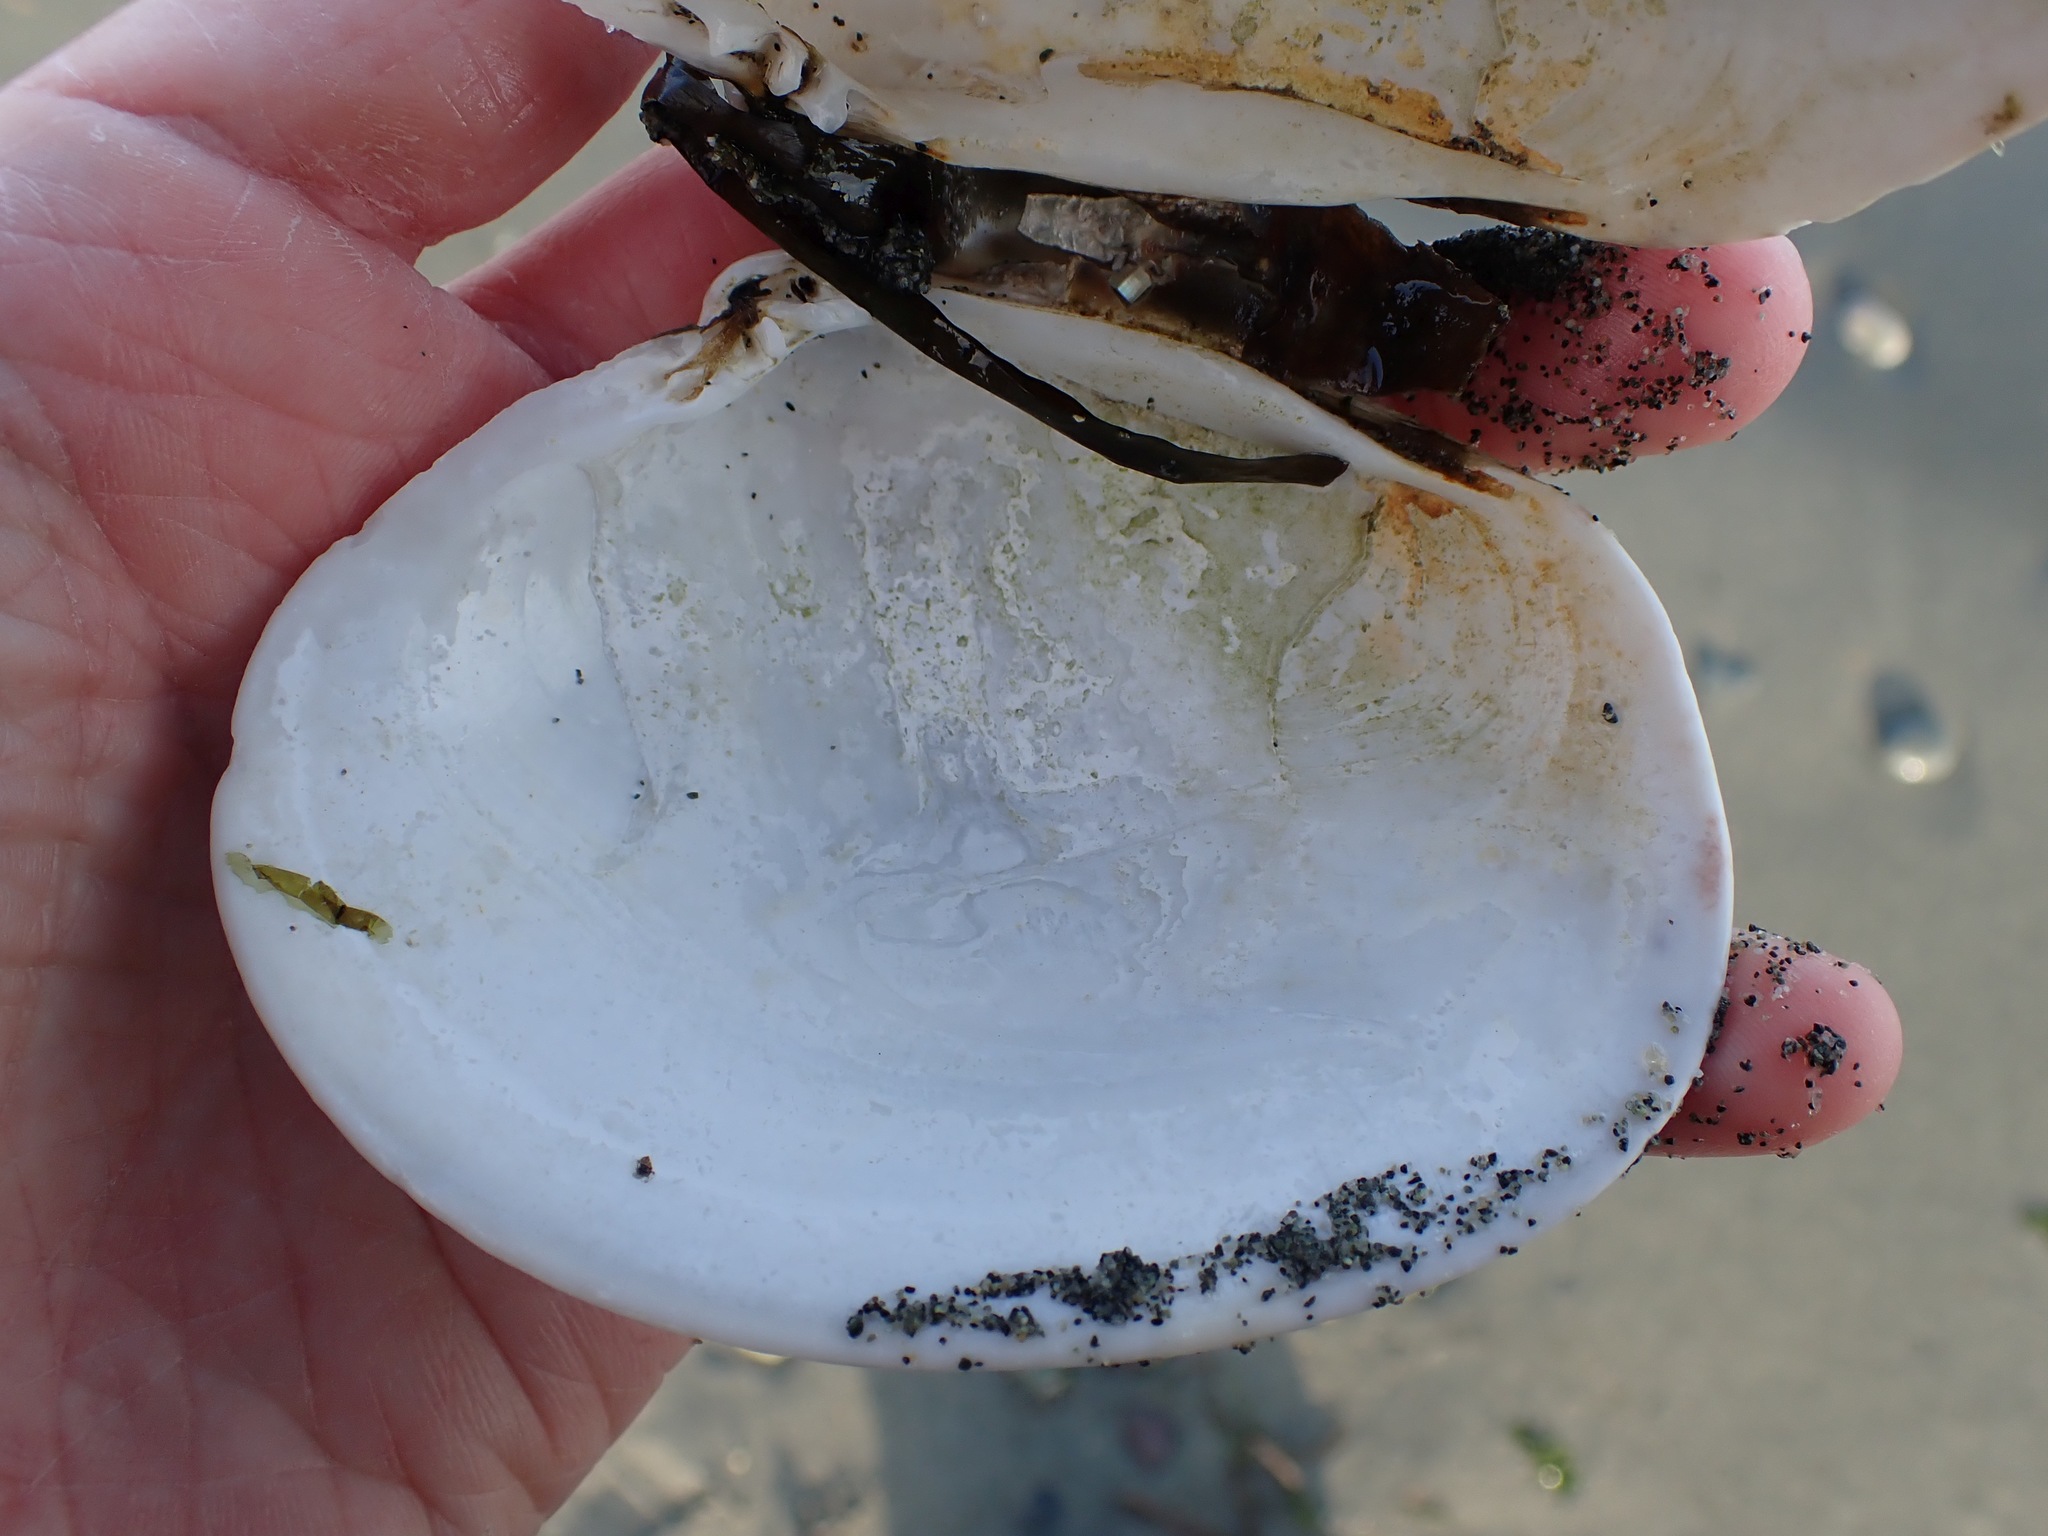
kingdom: Animalia
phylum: Mollusca
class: Bivalvia
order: Venerida
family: Veneridae
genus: Saxidomus
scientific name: Saxidomus gigantea
